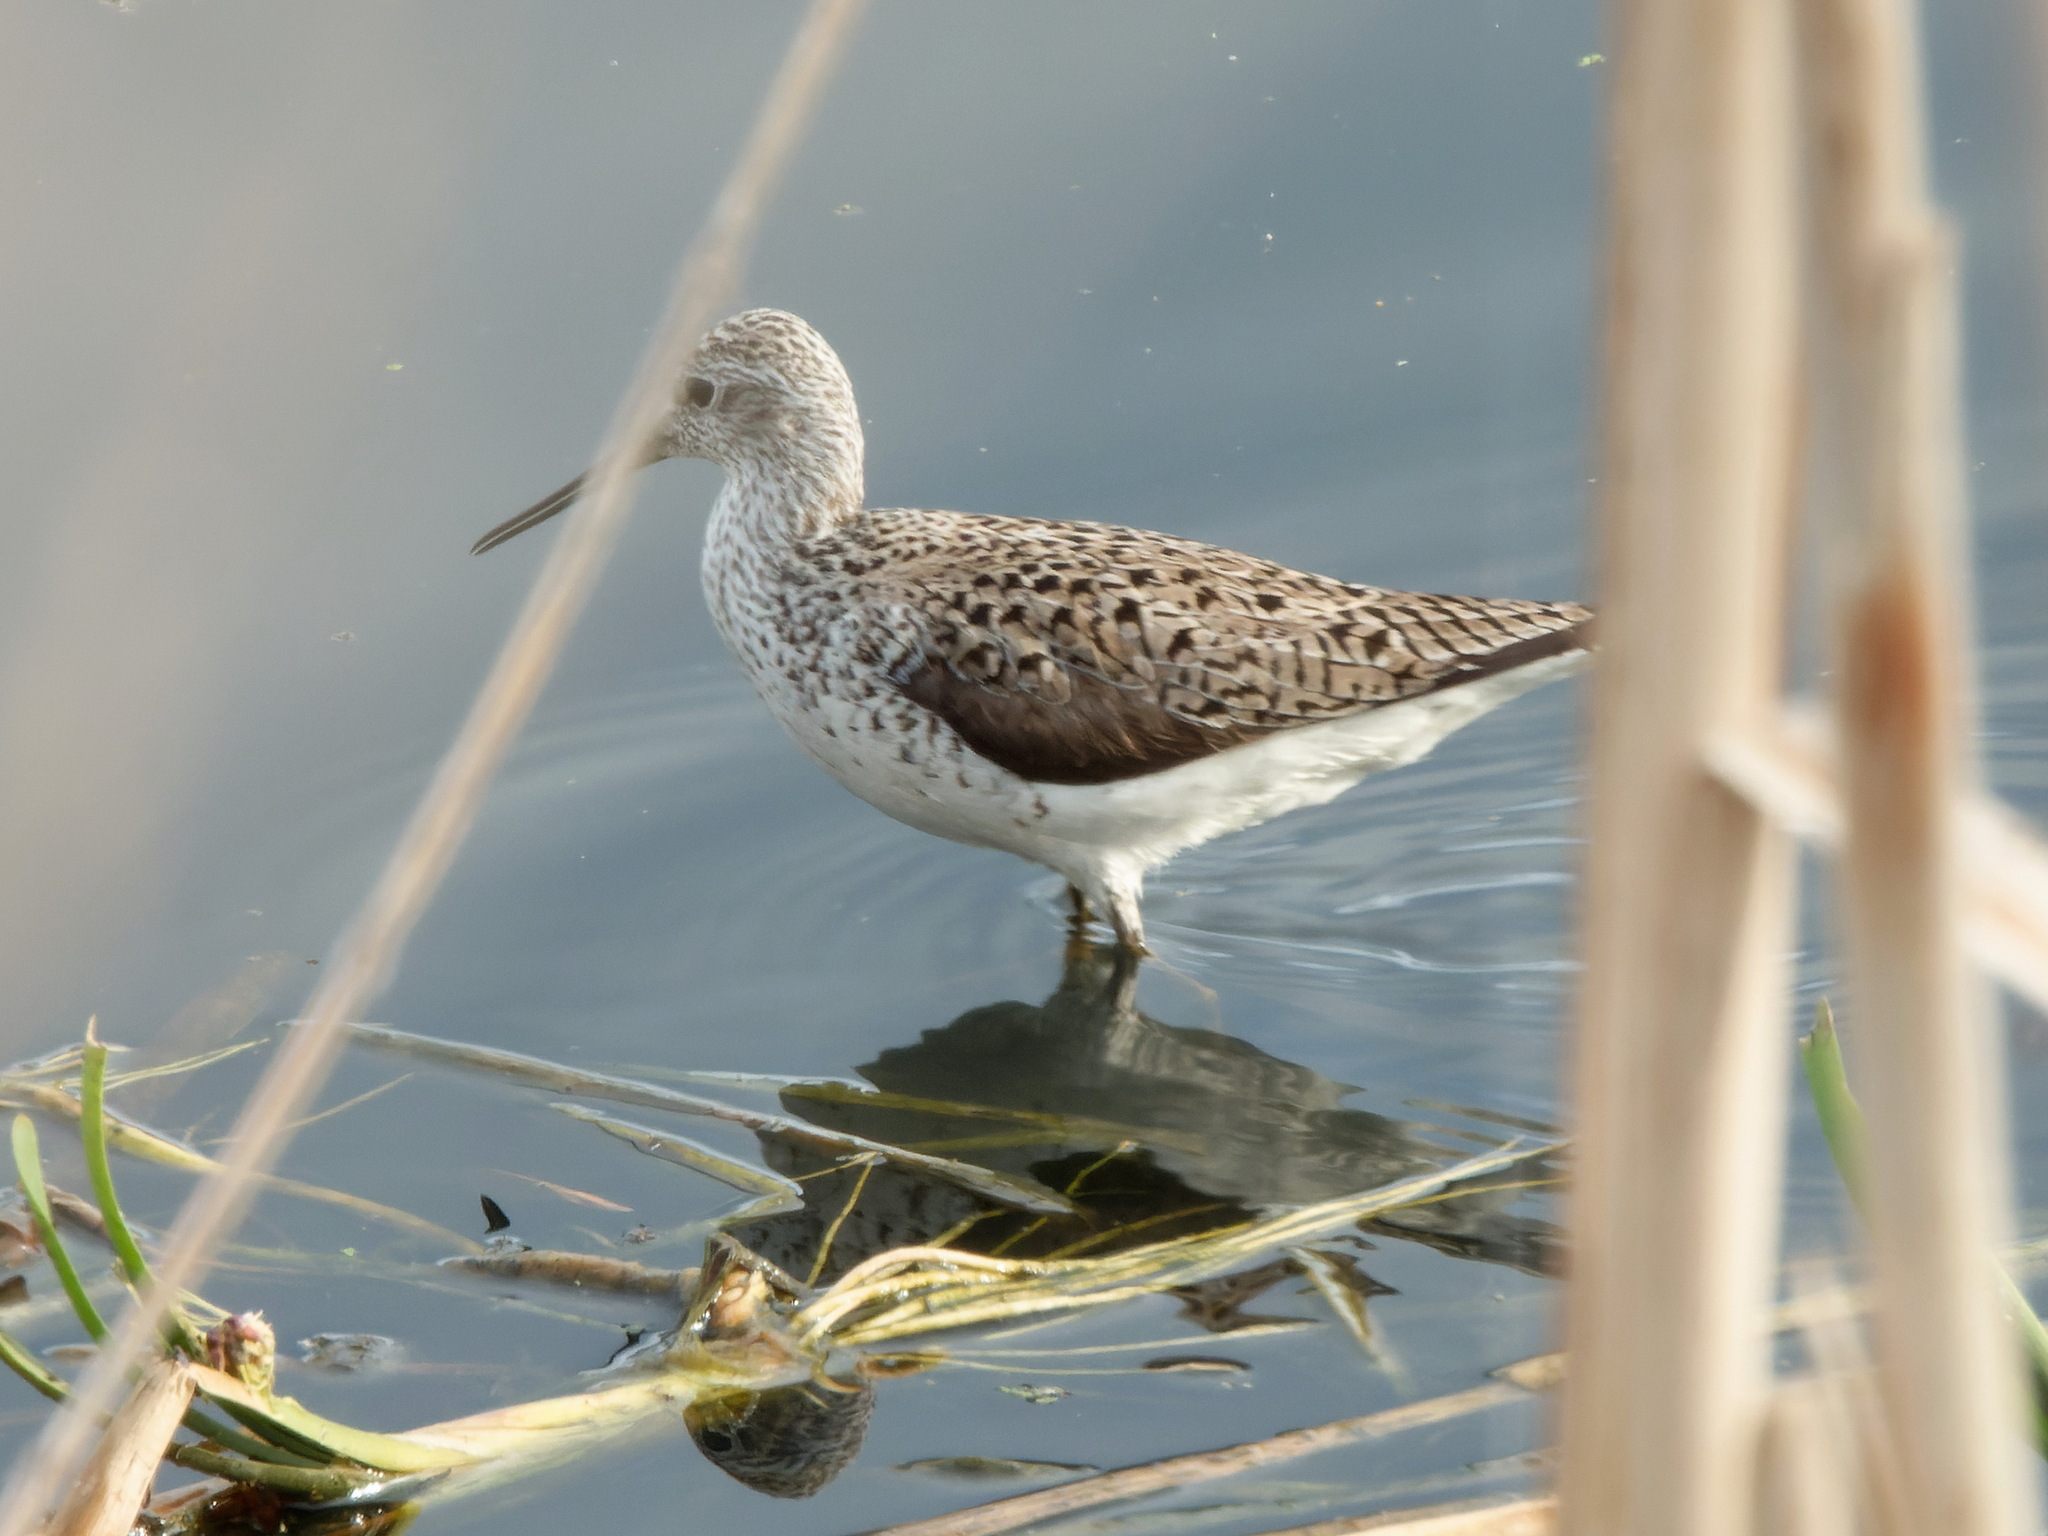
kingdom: Animalia
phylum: Chordata
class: Aves
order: Charadriiformes
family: Scolopacidae
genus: Tringa
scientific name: Tringa stagnatilis
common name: Marsh sandpiper
